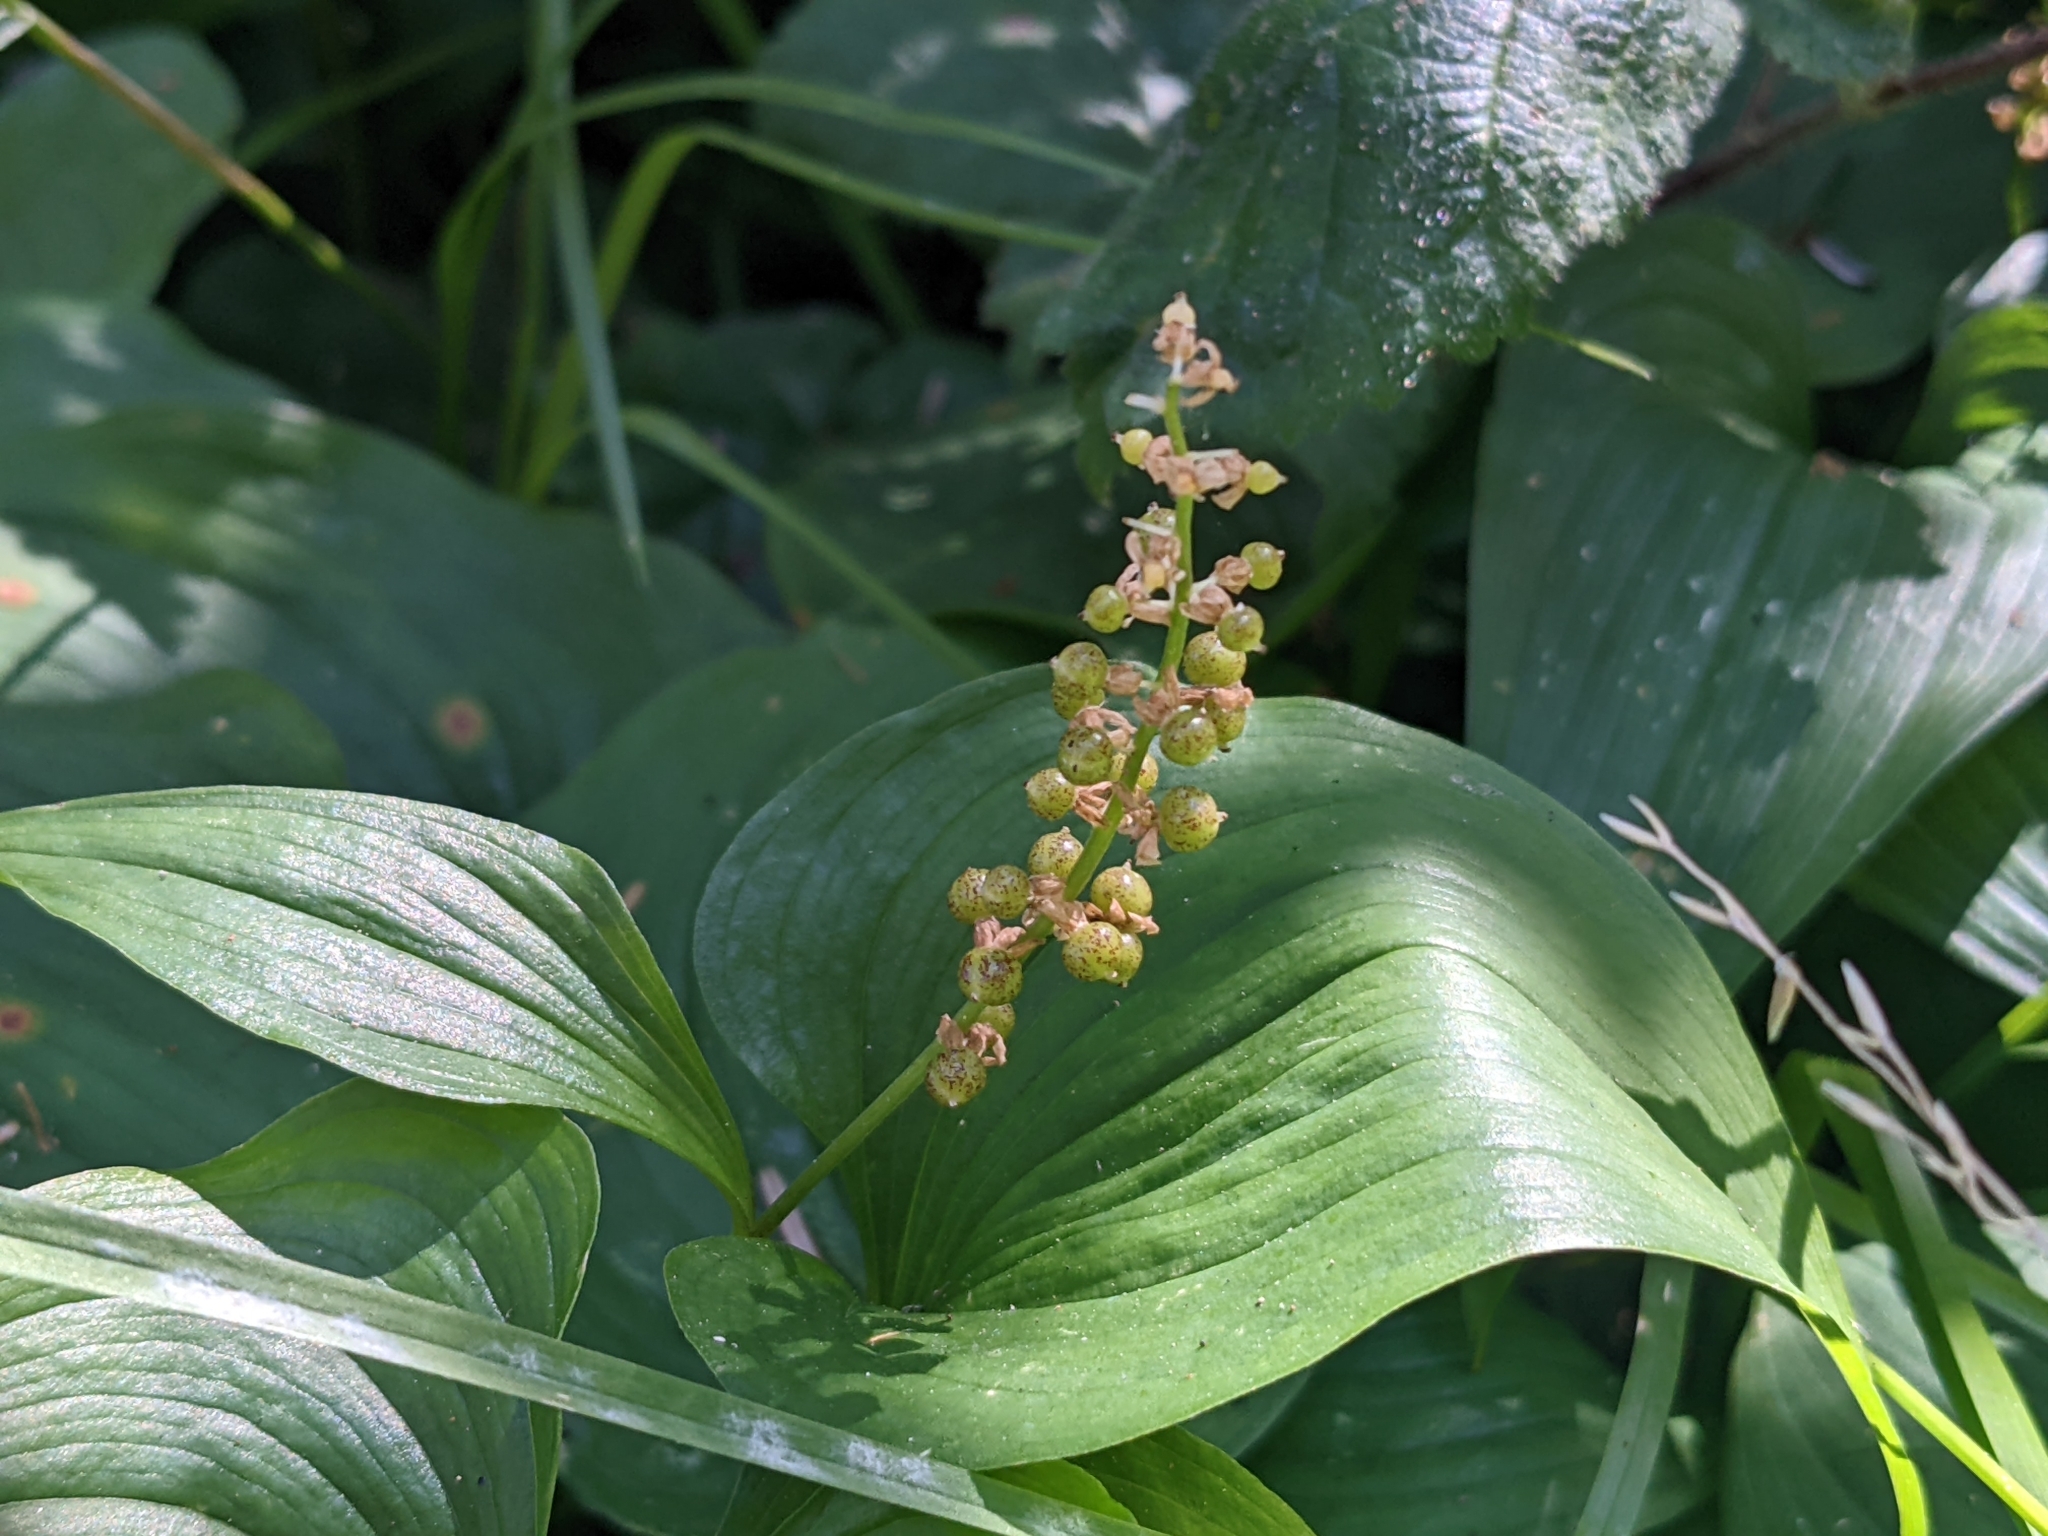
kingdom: Plantae
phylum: Tracheophyta
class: Liliopsida
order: Asparagales
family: Asparagaceae
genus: Maianthemum
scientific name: Maianthemum dilatatum
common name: False lily-of-the-valley
